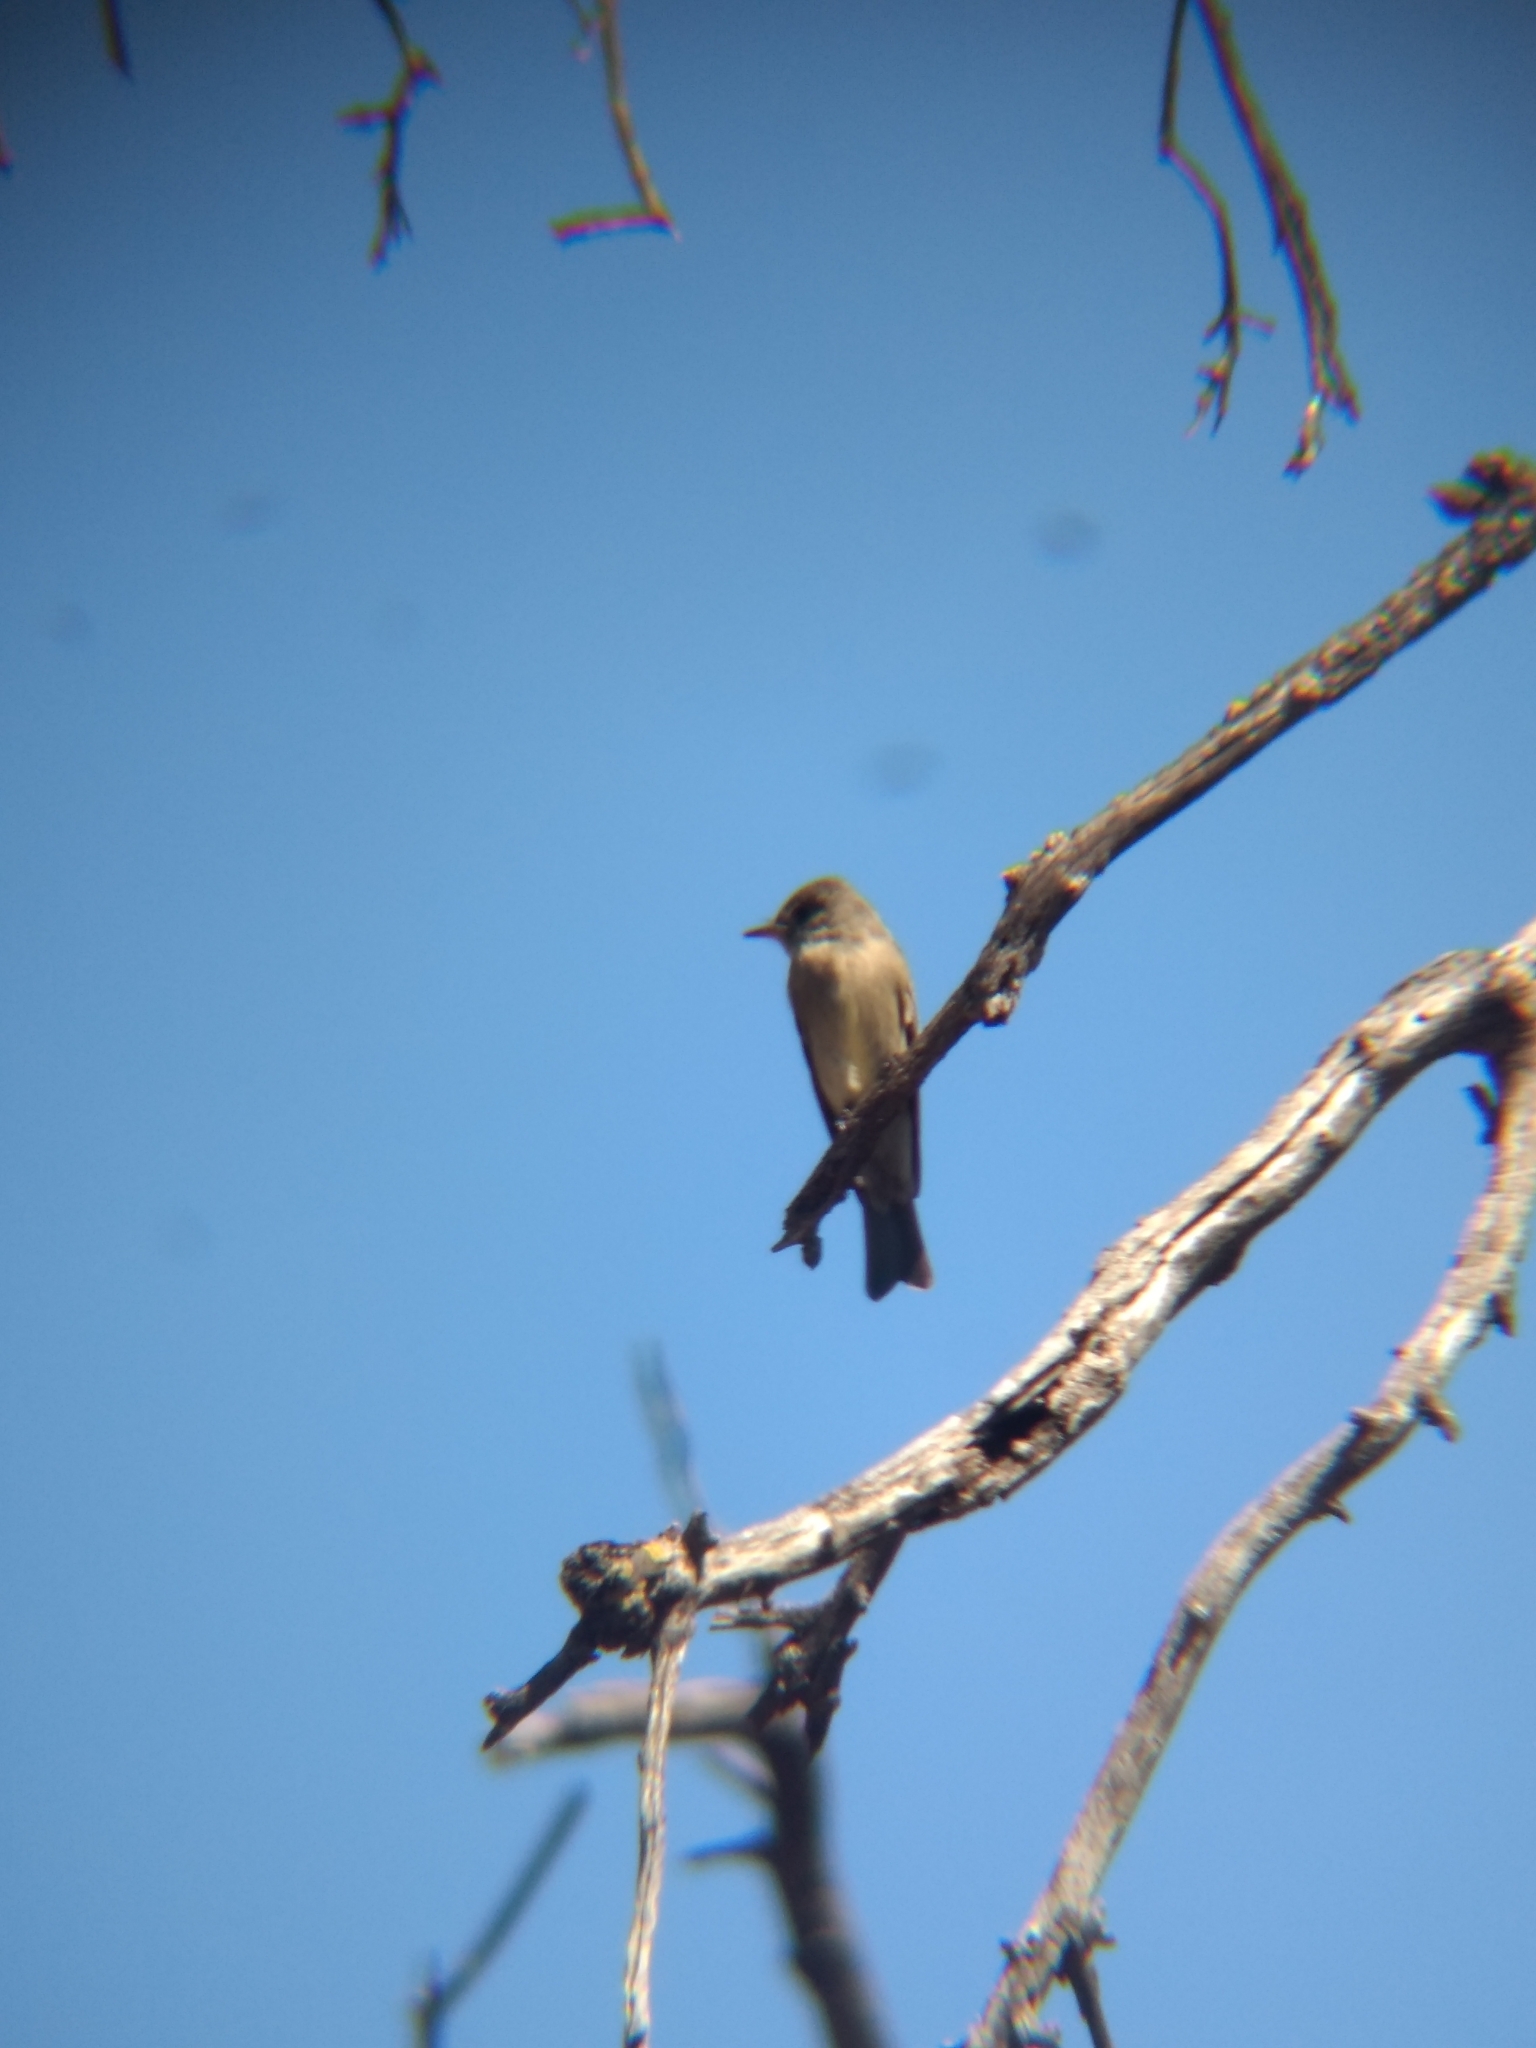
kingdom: Animalia
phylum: Chordata
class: Aves
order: Passeriformes
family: Tyrannidae
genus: Contopus
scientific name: Contopus sordidulus
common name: Western wood-pewee
